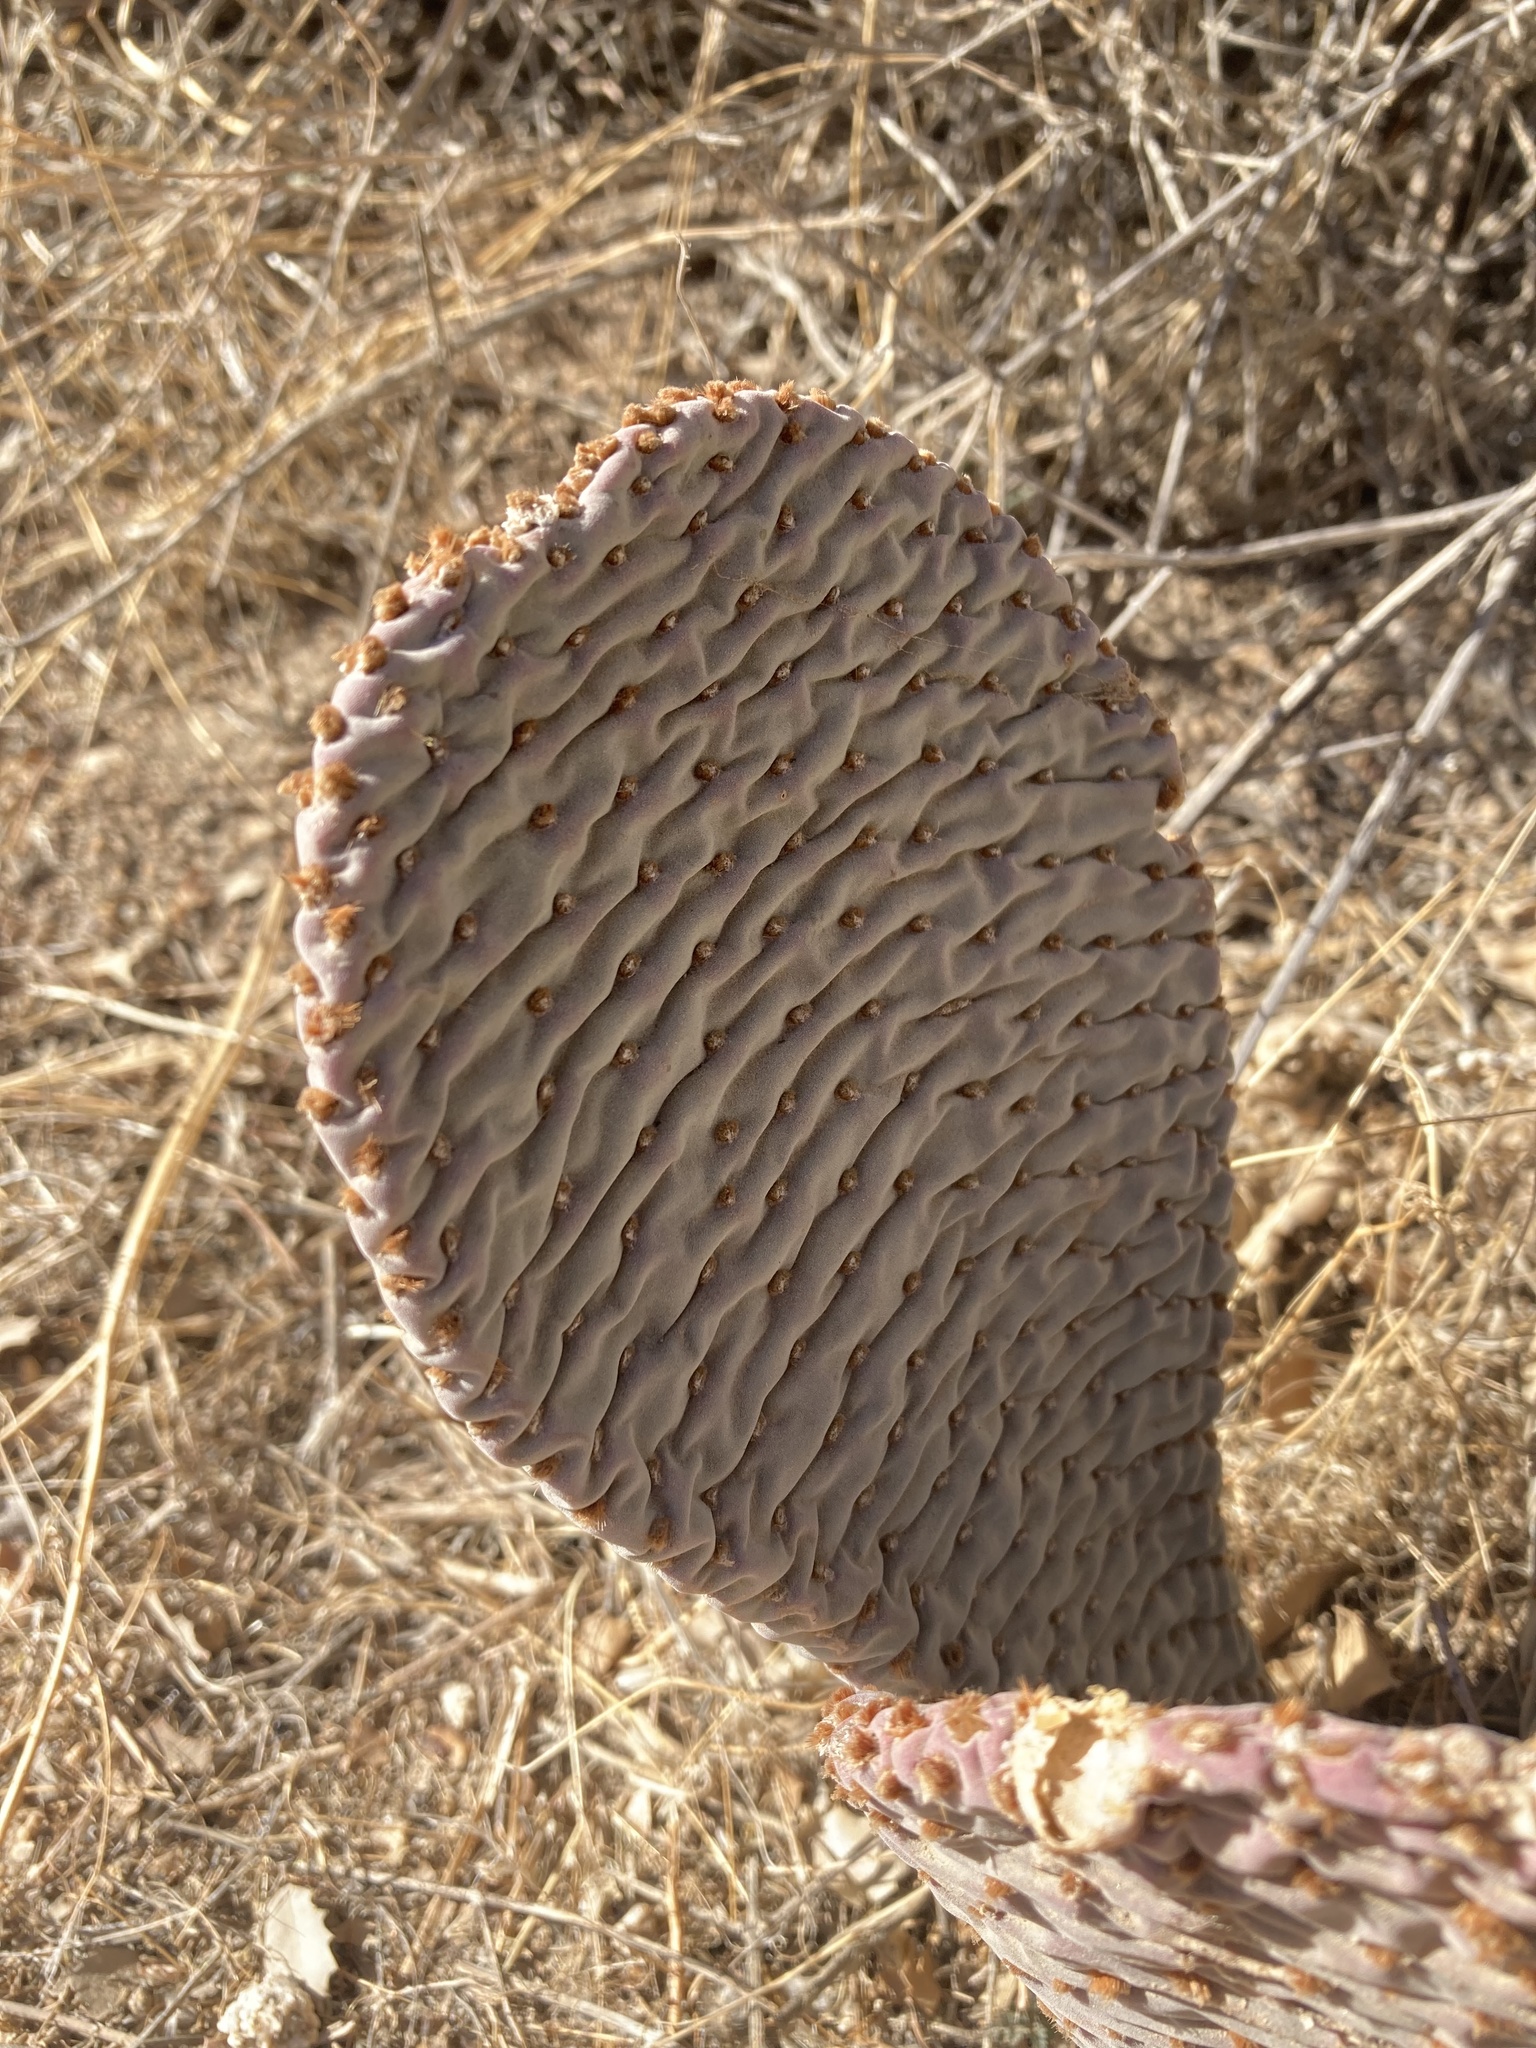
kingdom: Plantae
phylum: Tracheophyta
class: Magnoliopsida
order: Caryophyllales
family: Cactaceae
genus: Opuntia
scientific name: Opuntia basilaris
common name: Beavertail prickly-pear
